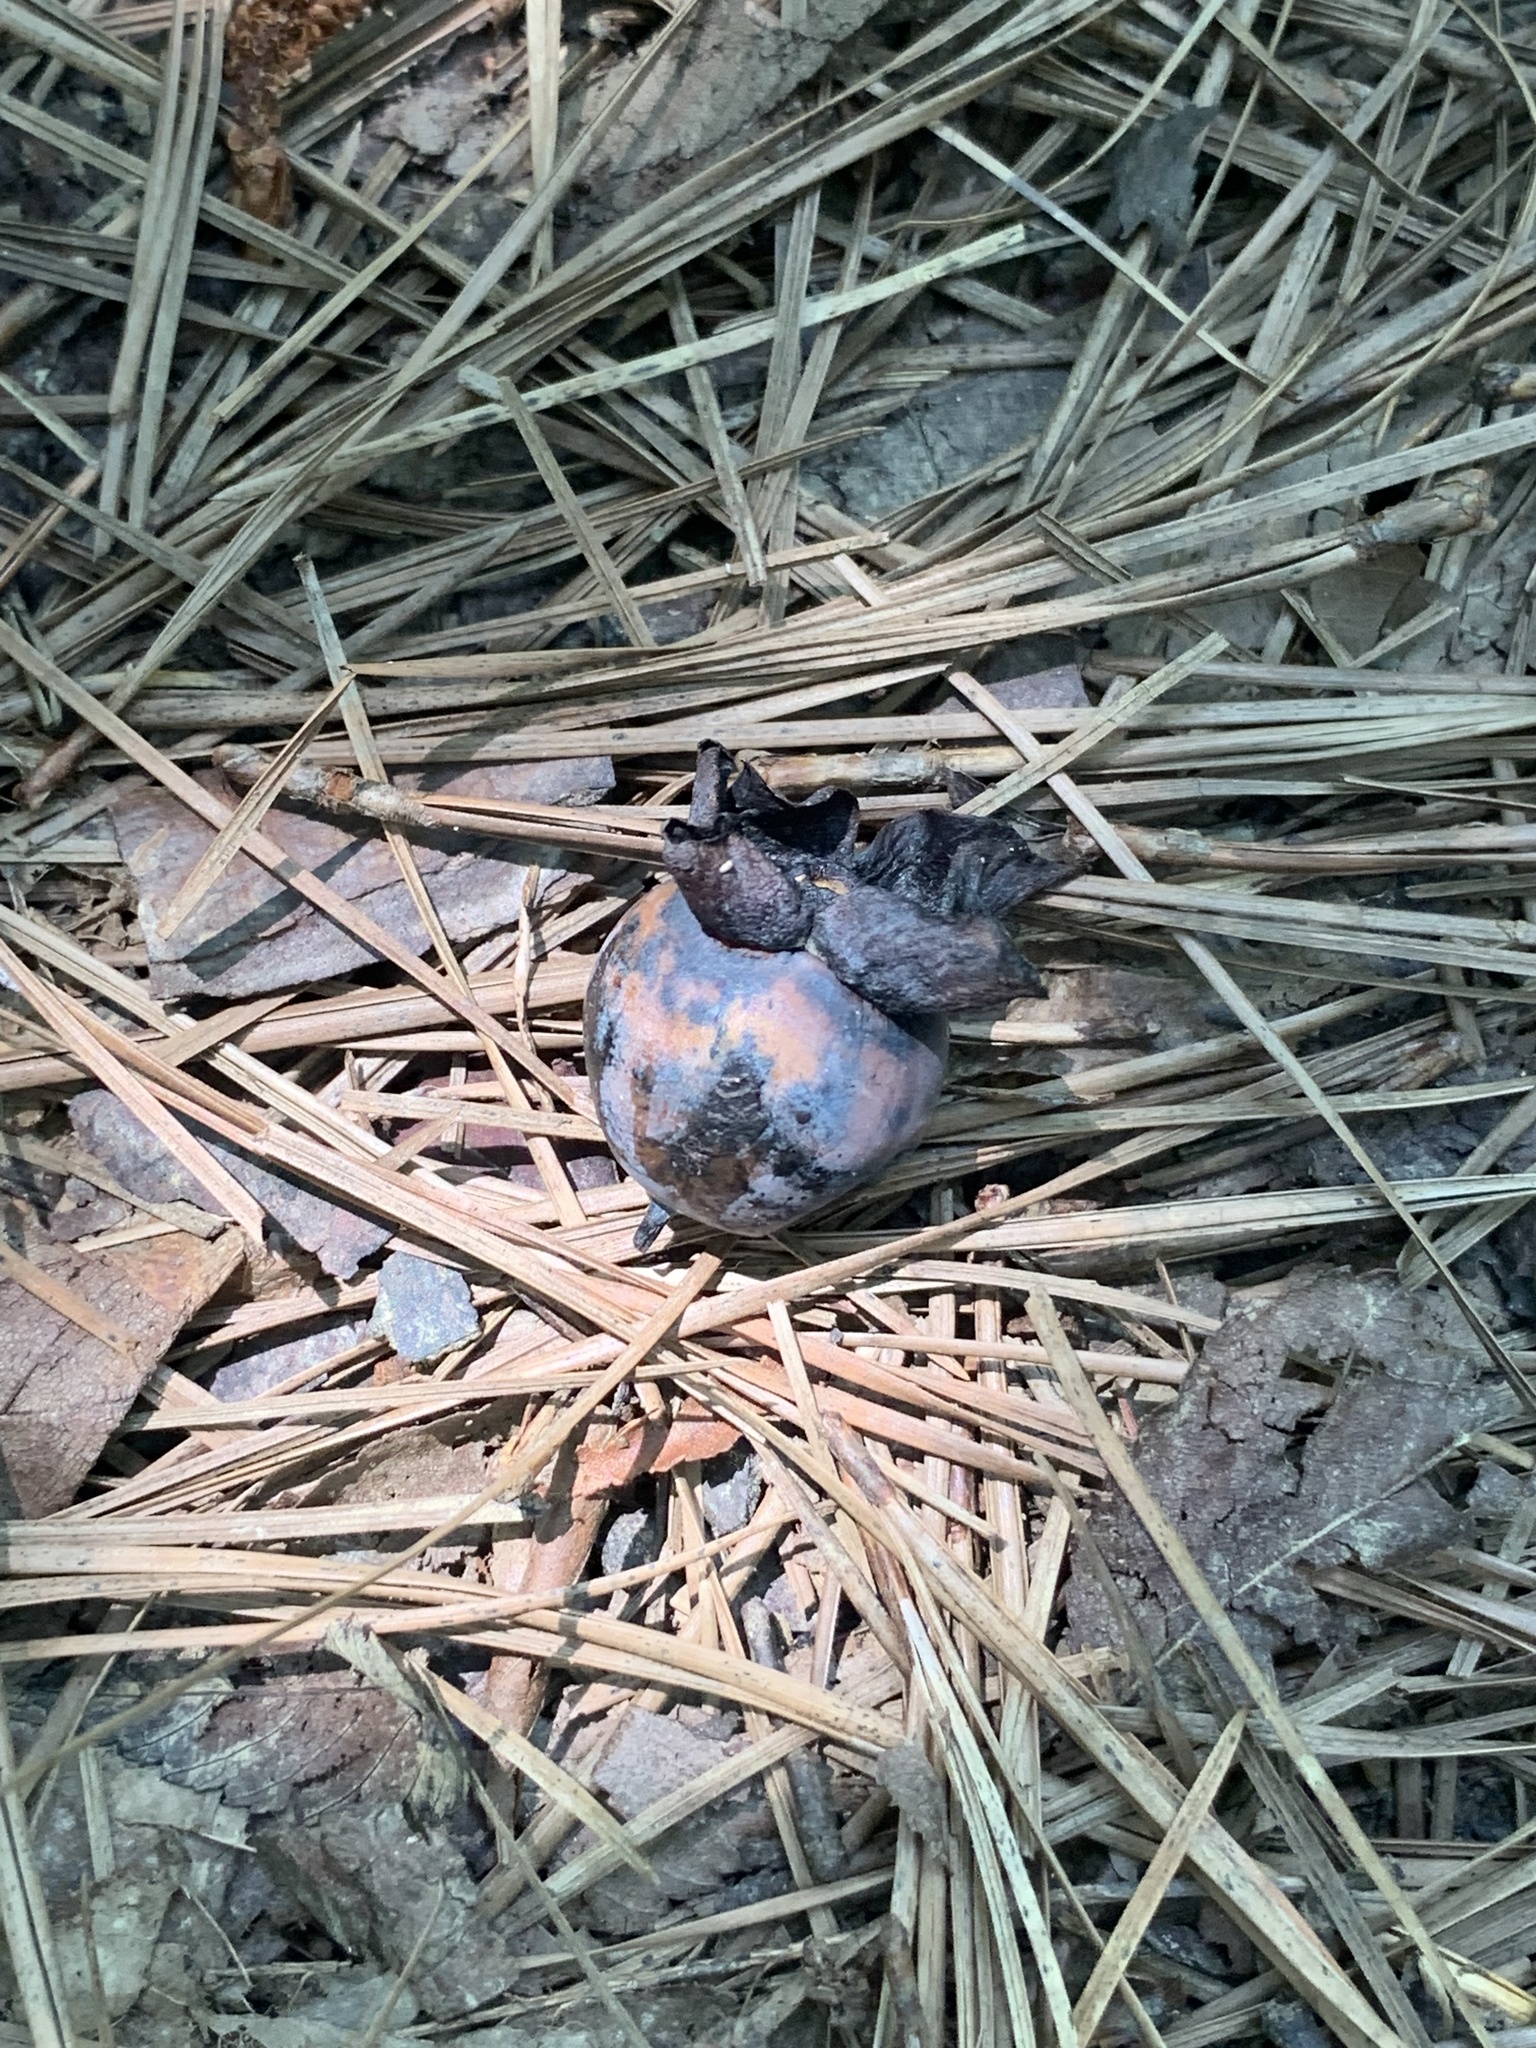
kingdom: Plantae
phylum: Tracheophyta
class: Magnoliopsida
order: Ericales
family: Ebenaceae
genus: Diospyros
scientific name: Diospyros virginiana
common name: Persimmon
